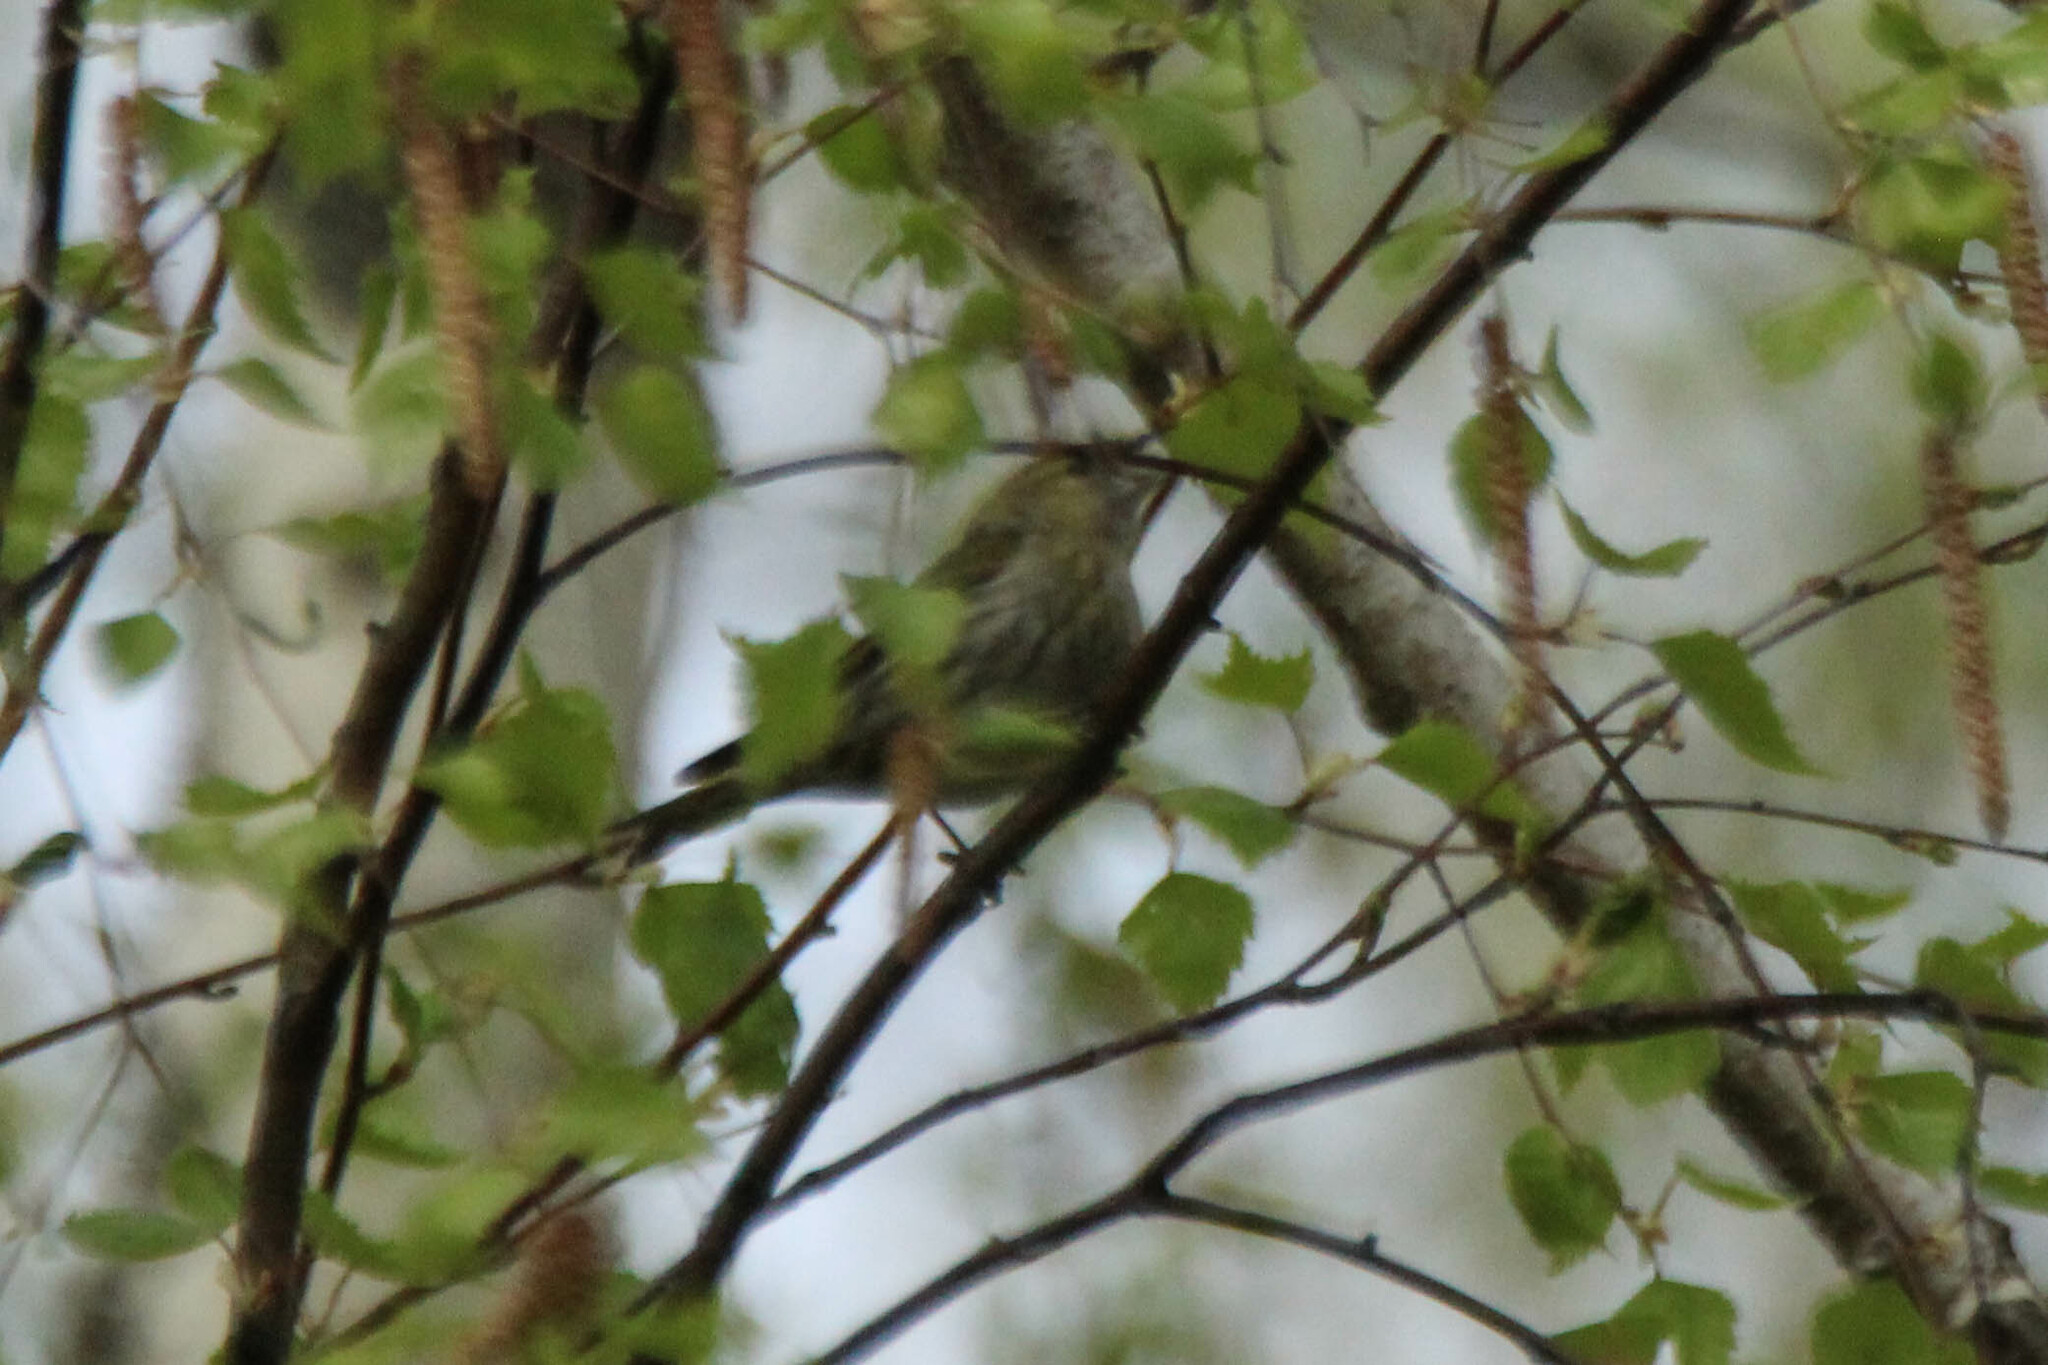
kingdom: Animalia
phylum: Chordata
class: Aves
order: Passeriformes
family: Fringillidae
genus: Spinus
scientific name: Spinus spinus
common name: Eurasian siskin
